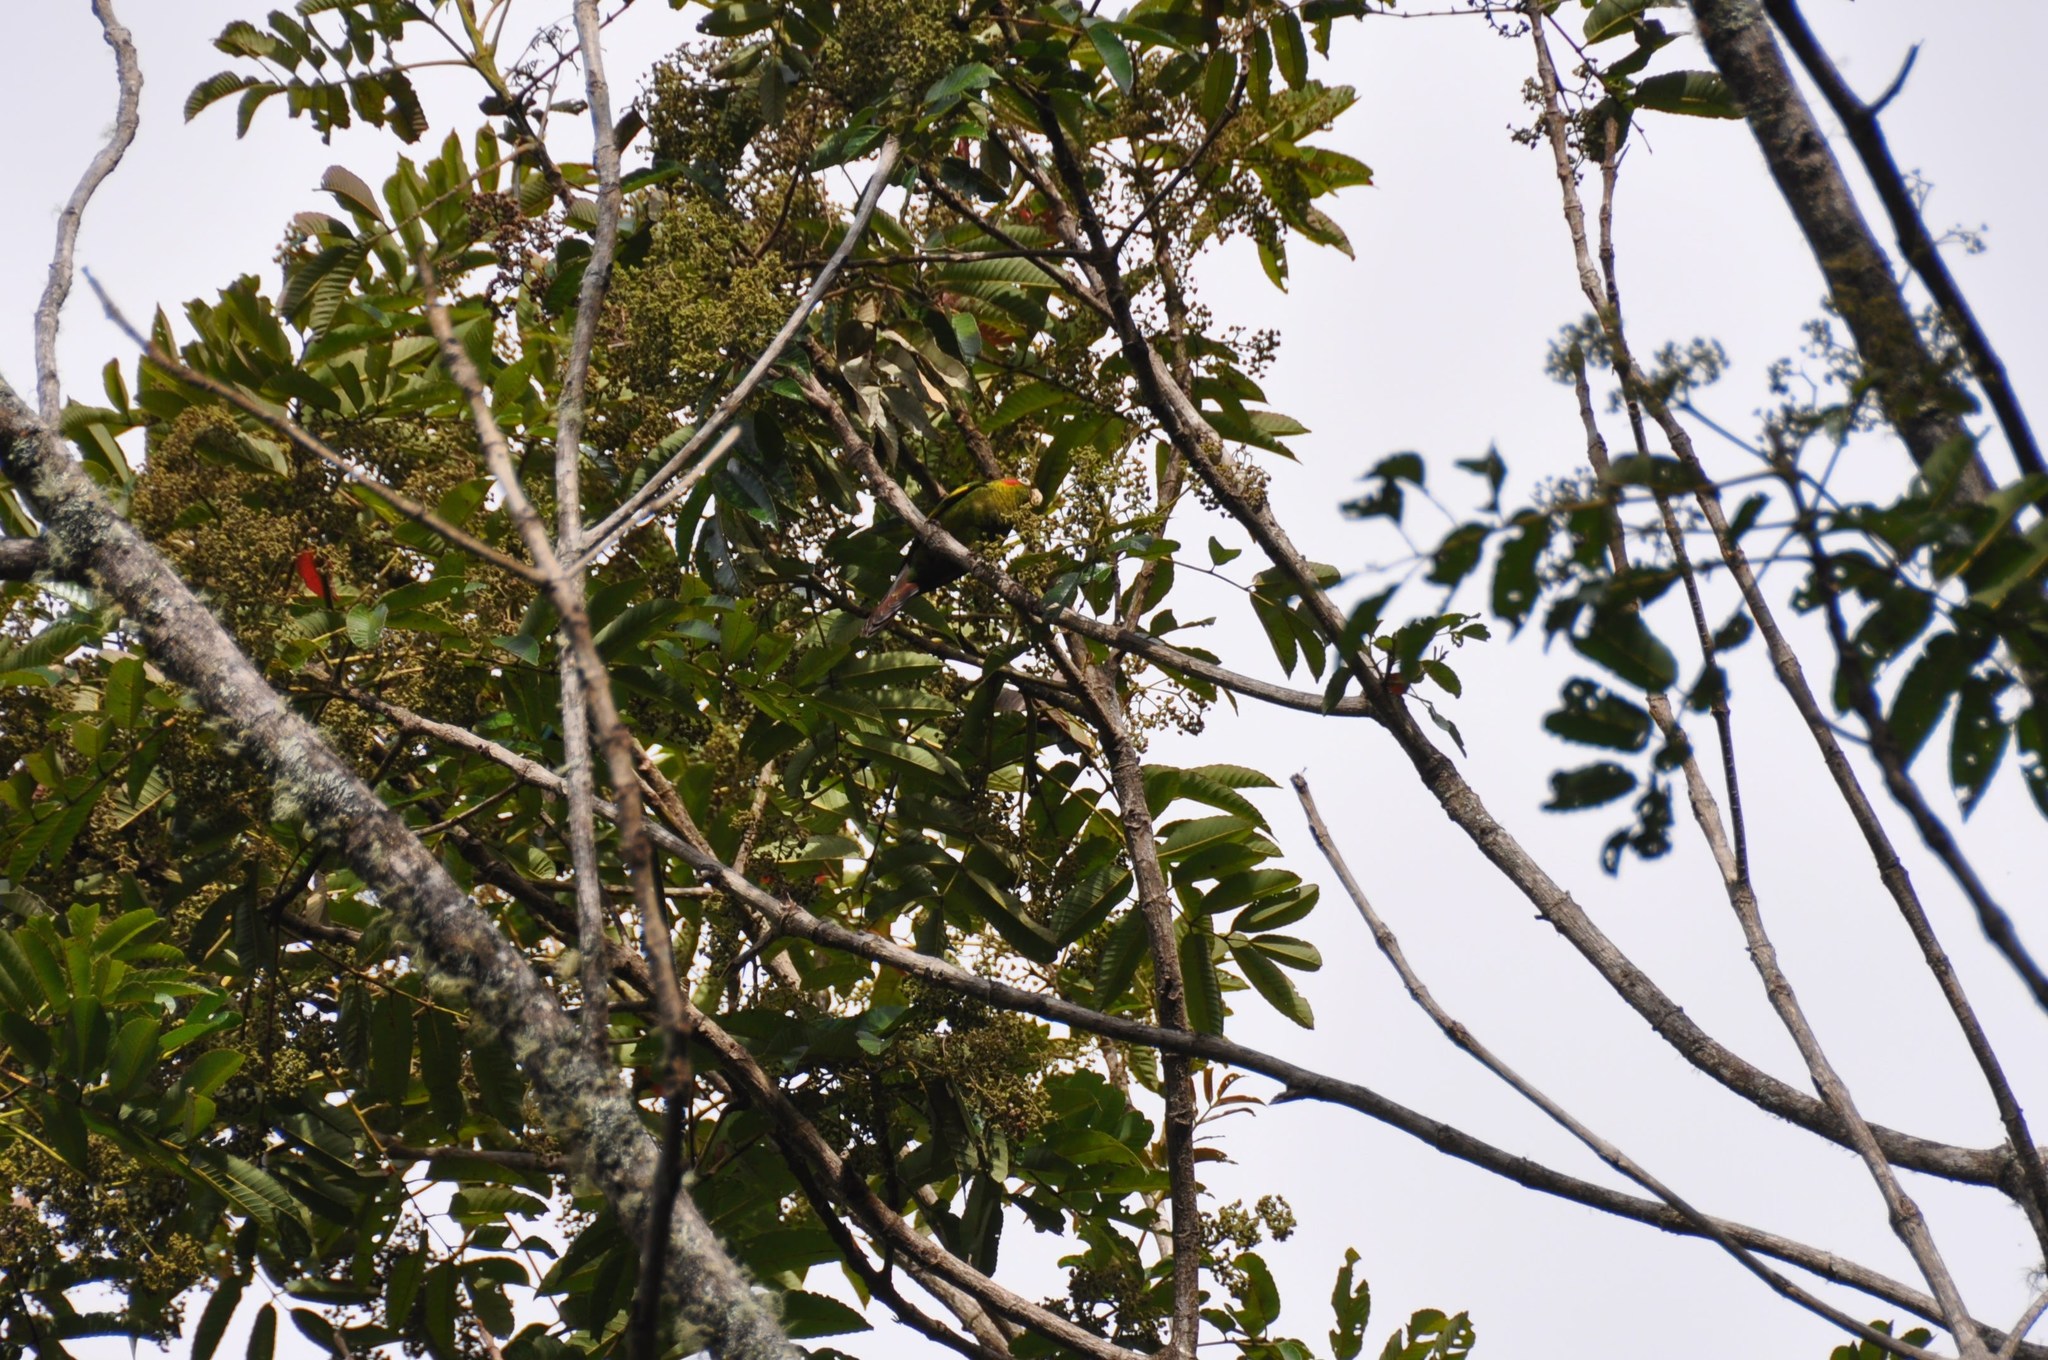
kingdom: Animalia
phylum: Chordata
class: Aves
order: Psittaciformes
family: Psittacidae
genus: Pyrrhura
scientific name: Pyrrhura hoffmanni
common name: Sulphur-winged parakeet
